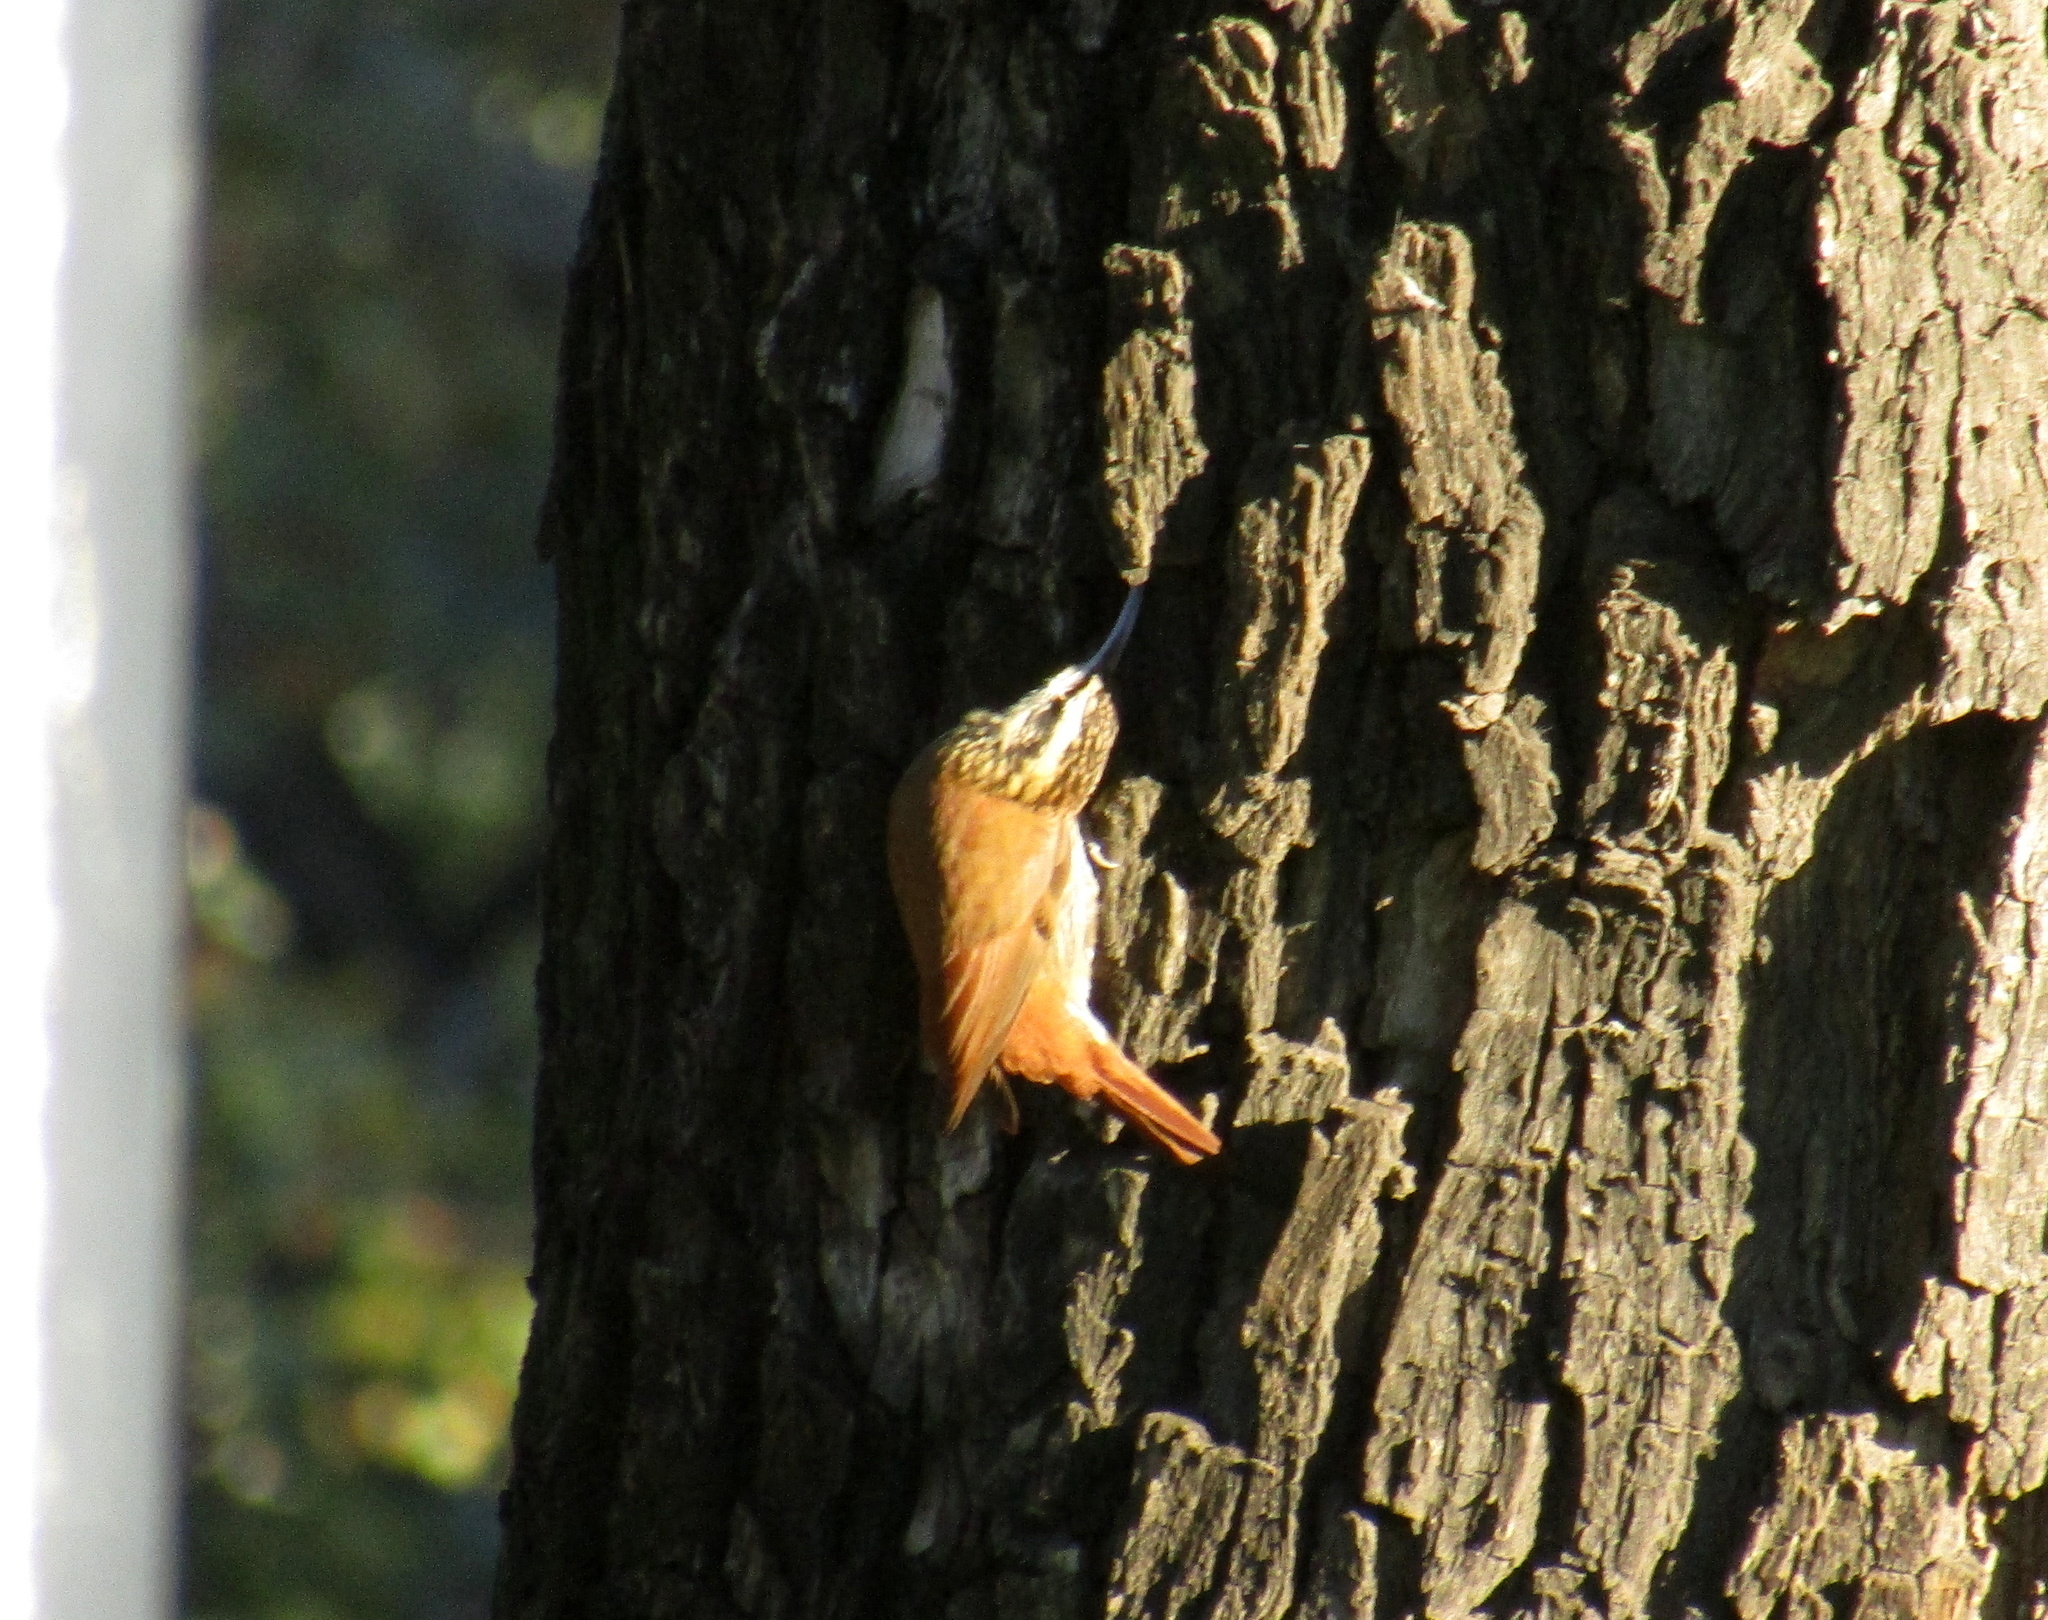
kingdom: Animalia
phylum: Chordata
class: Aves
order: Passeriformes
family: Furnariidae
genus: Lepidocolaptes
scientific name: Lepidocolaptes angustirostris
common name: Narrow-billed woodcreeper
